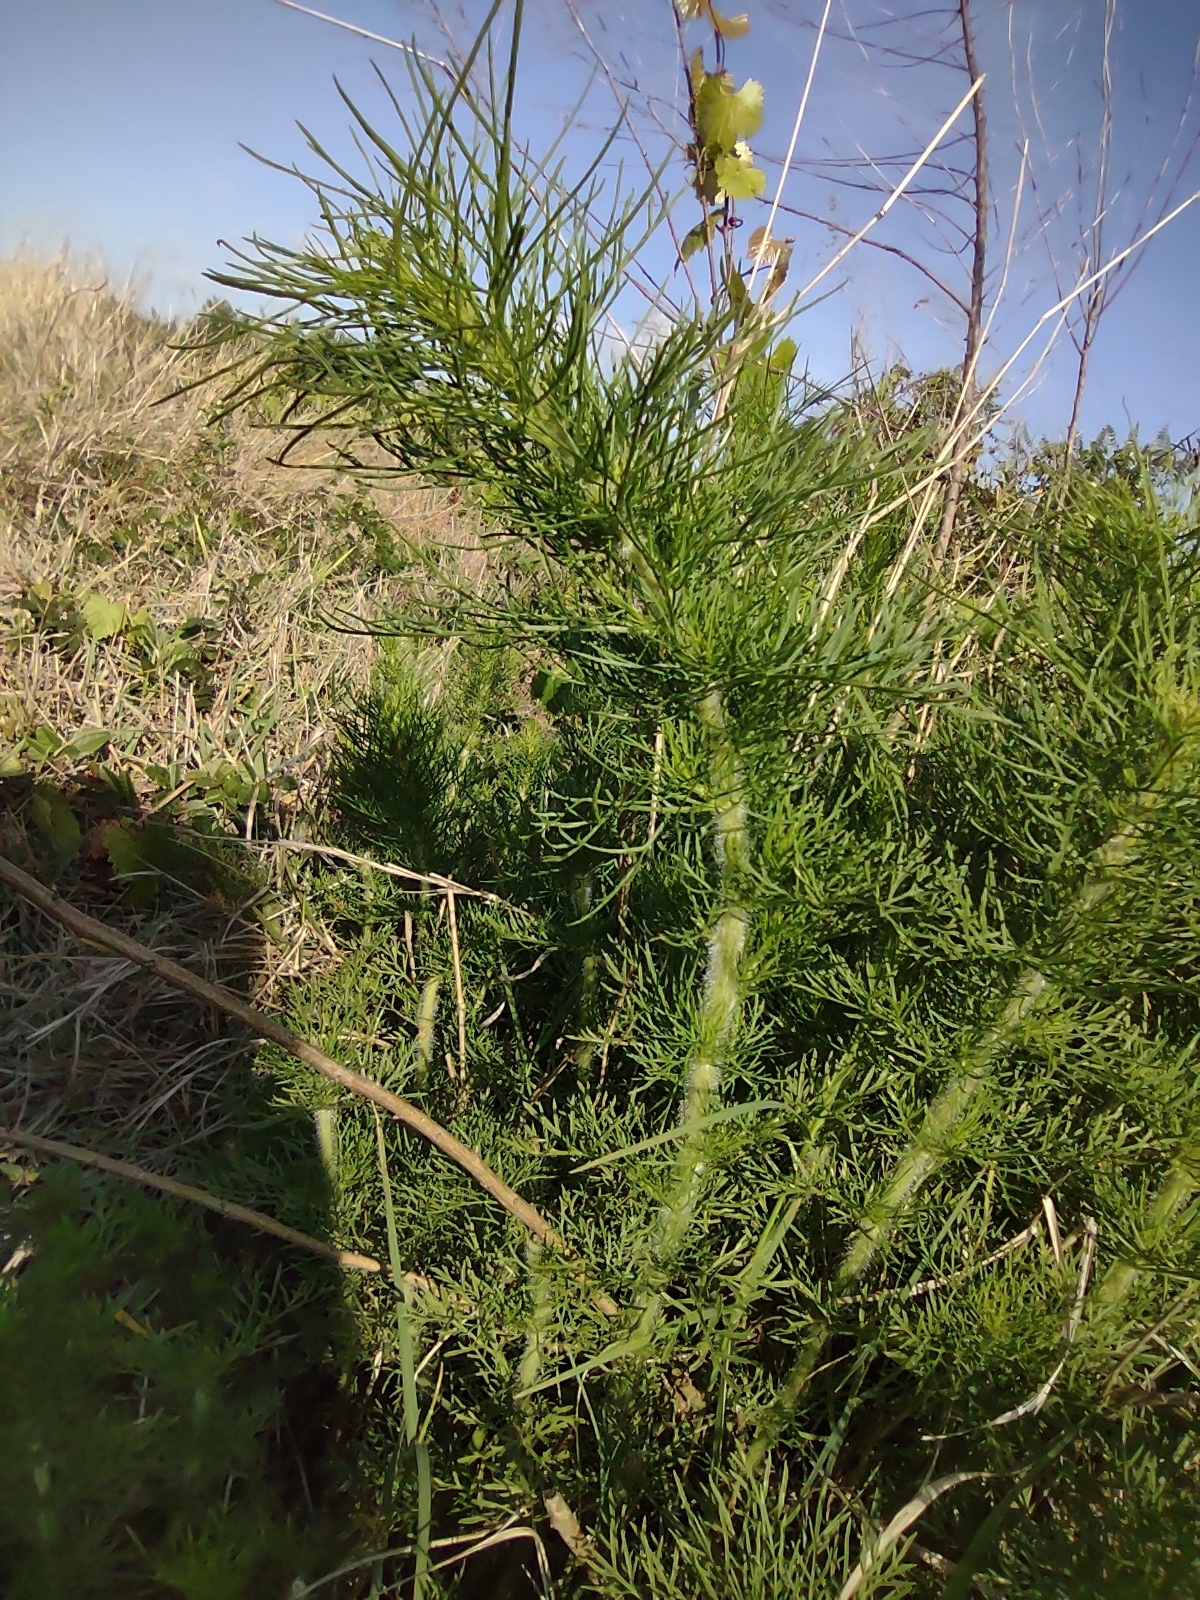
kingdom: Plantae
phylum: Tracheophyta
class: Magnoliopsida
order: Asterales
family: Asteraceae
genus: Eupatorium
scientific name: Eupatorium capillifolium
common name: Dog-fennel
